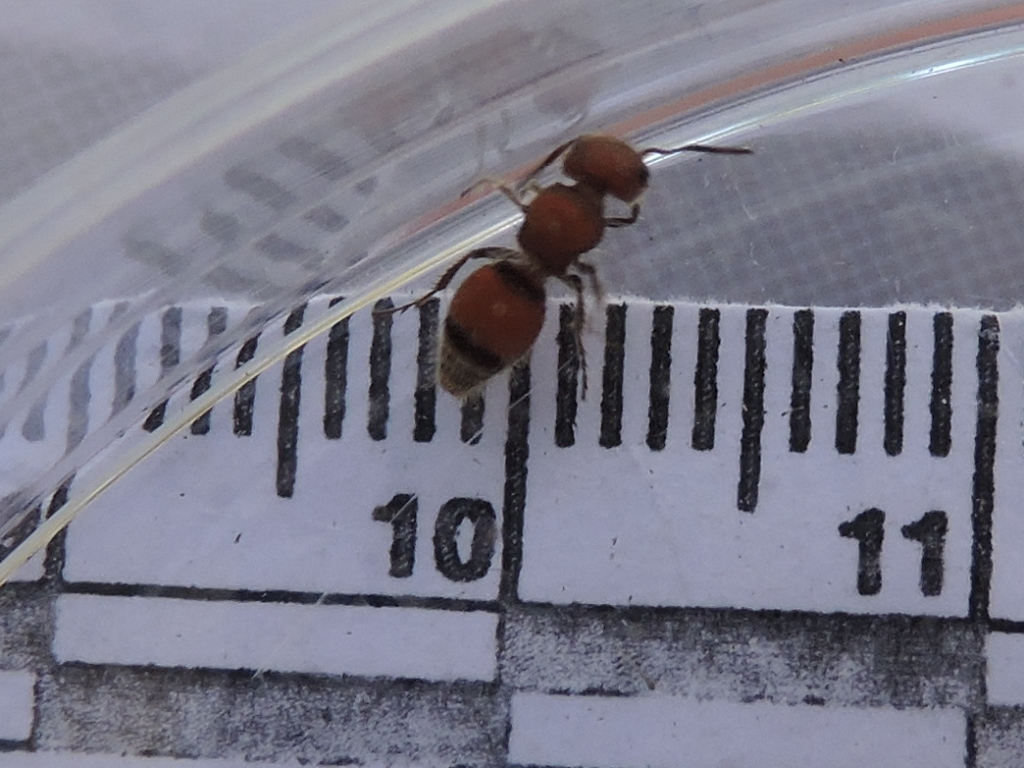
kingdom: Animalia
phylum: Arthropoda
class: Insecta
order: Hymenoptera
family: Mutillidae
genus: Pseudomethoca
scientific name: Pseudomethoca
